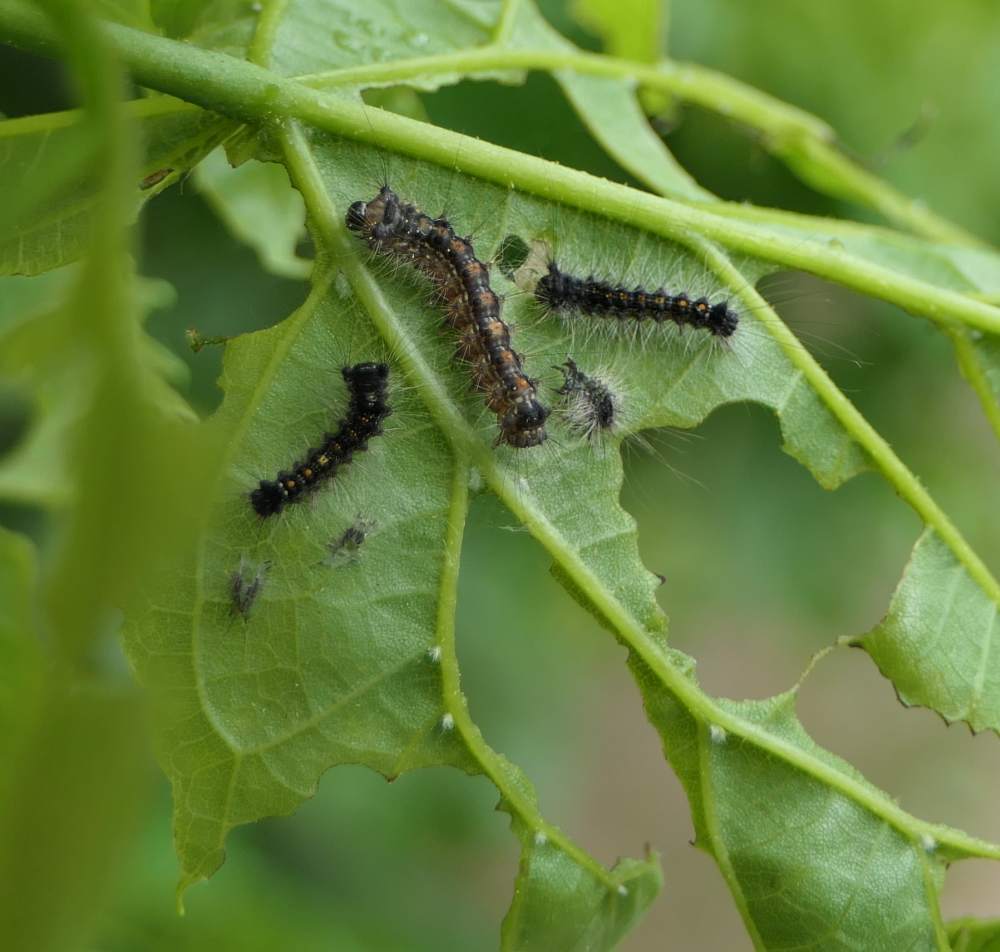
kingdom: Animalia
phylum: Arthropoda
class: Insecta
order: Lepidoptera
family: Erebidae
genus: Lymantria
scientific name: Lymantria dispar
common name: Gypsy moth
